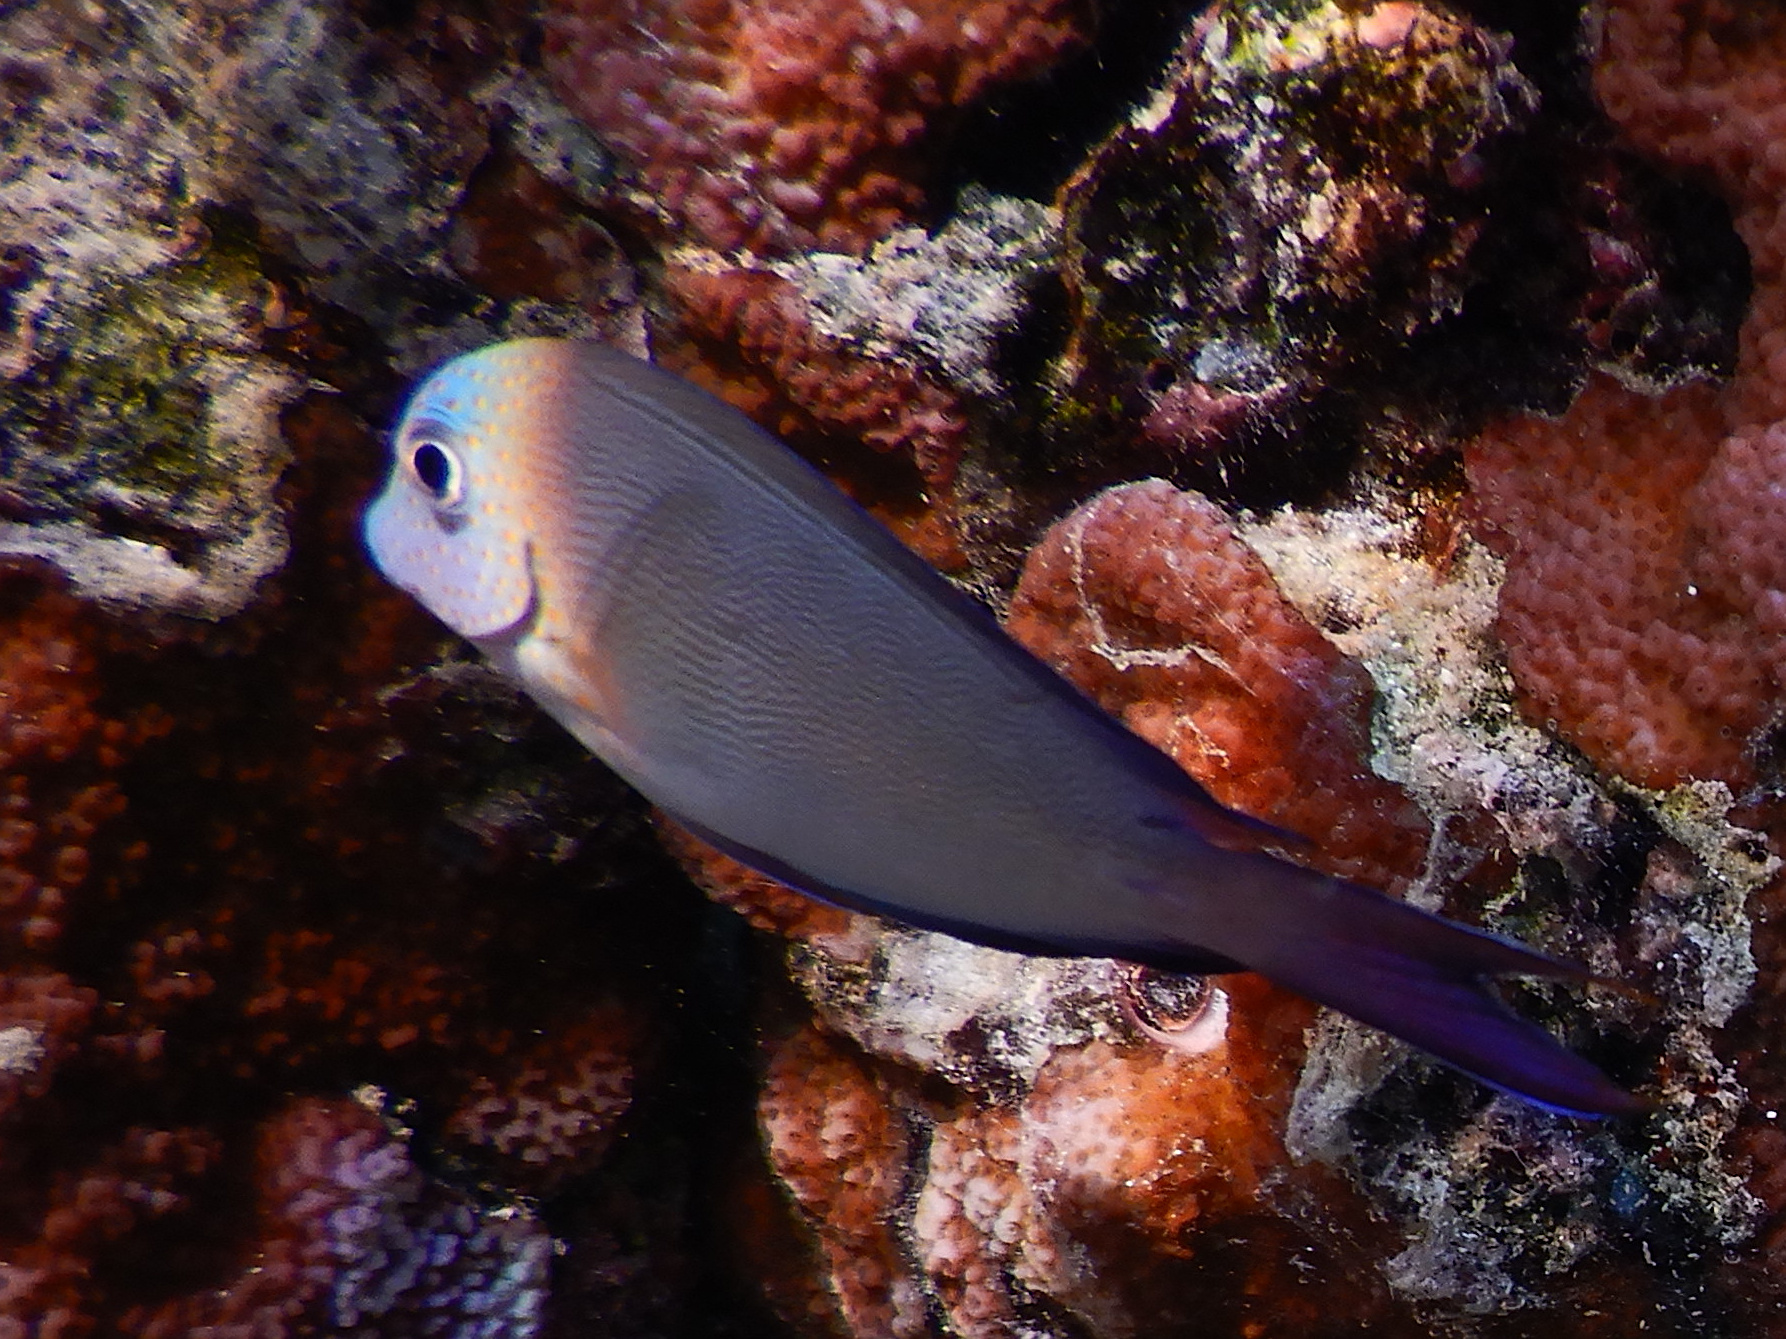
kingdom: Animalia
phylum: Chordata
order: Perciformes
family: Acanthuridae
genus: Acanthurus
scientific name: Acanthurus nigrofuscus
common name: Blackspot surgeonfish
